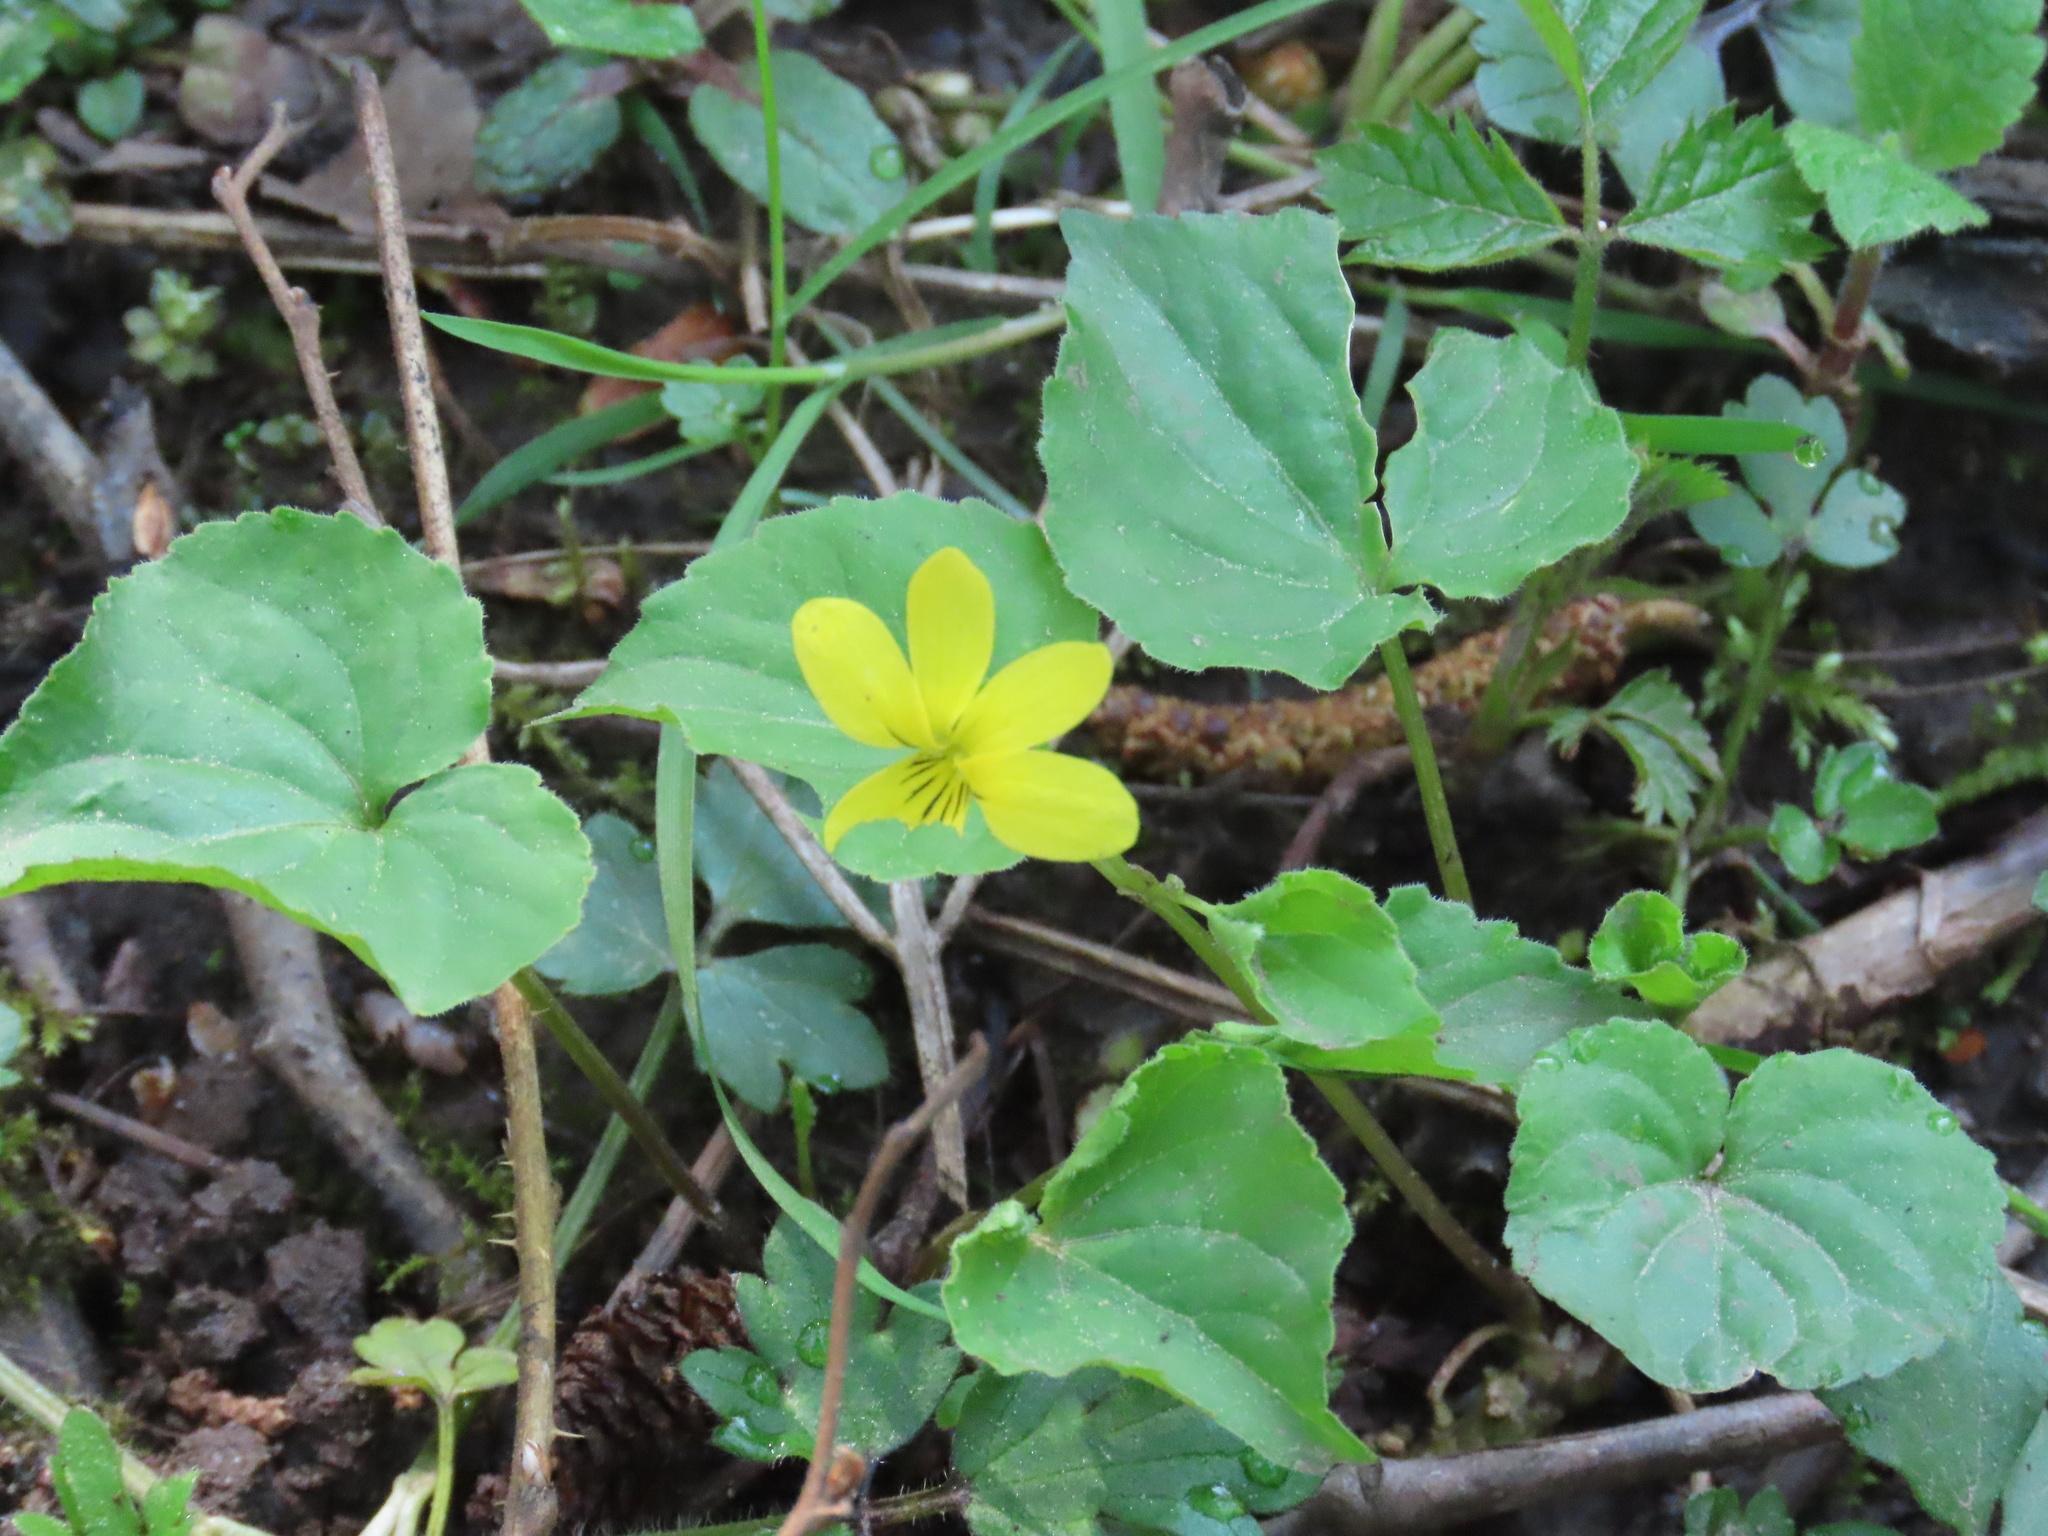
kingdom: Plantae
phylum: Tracheophyta
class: Magnoliopsida
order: Malpighiales
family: Violaceae
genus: Viola
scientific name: Viola glabella
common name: Stream violet
